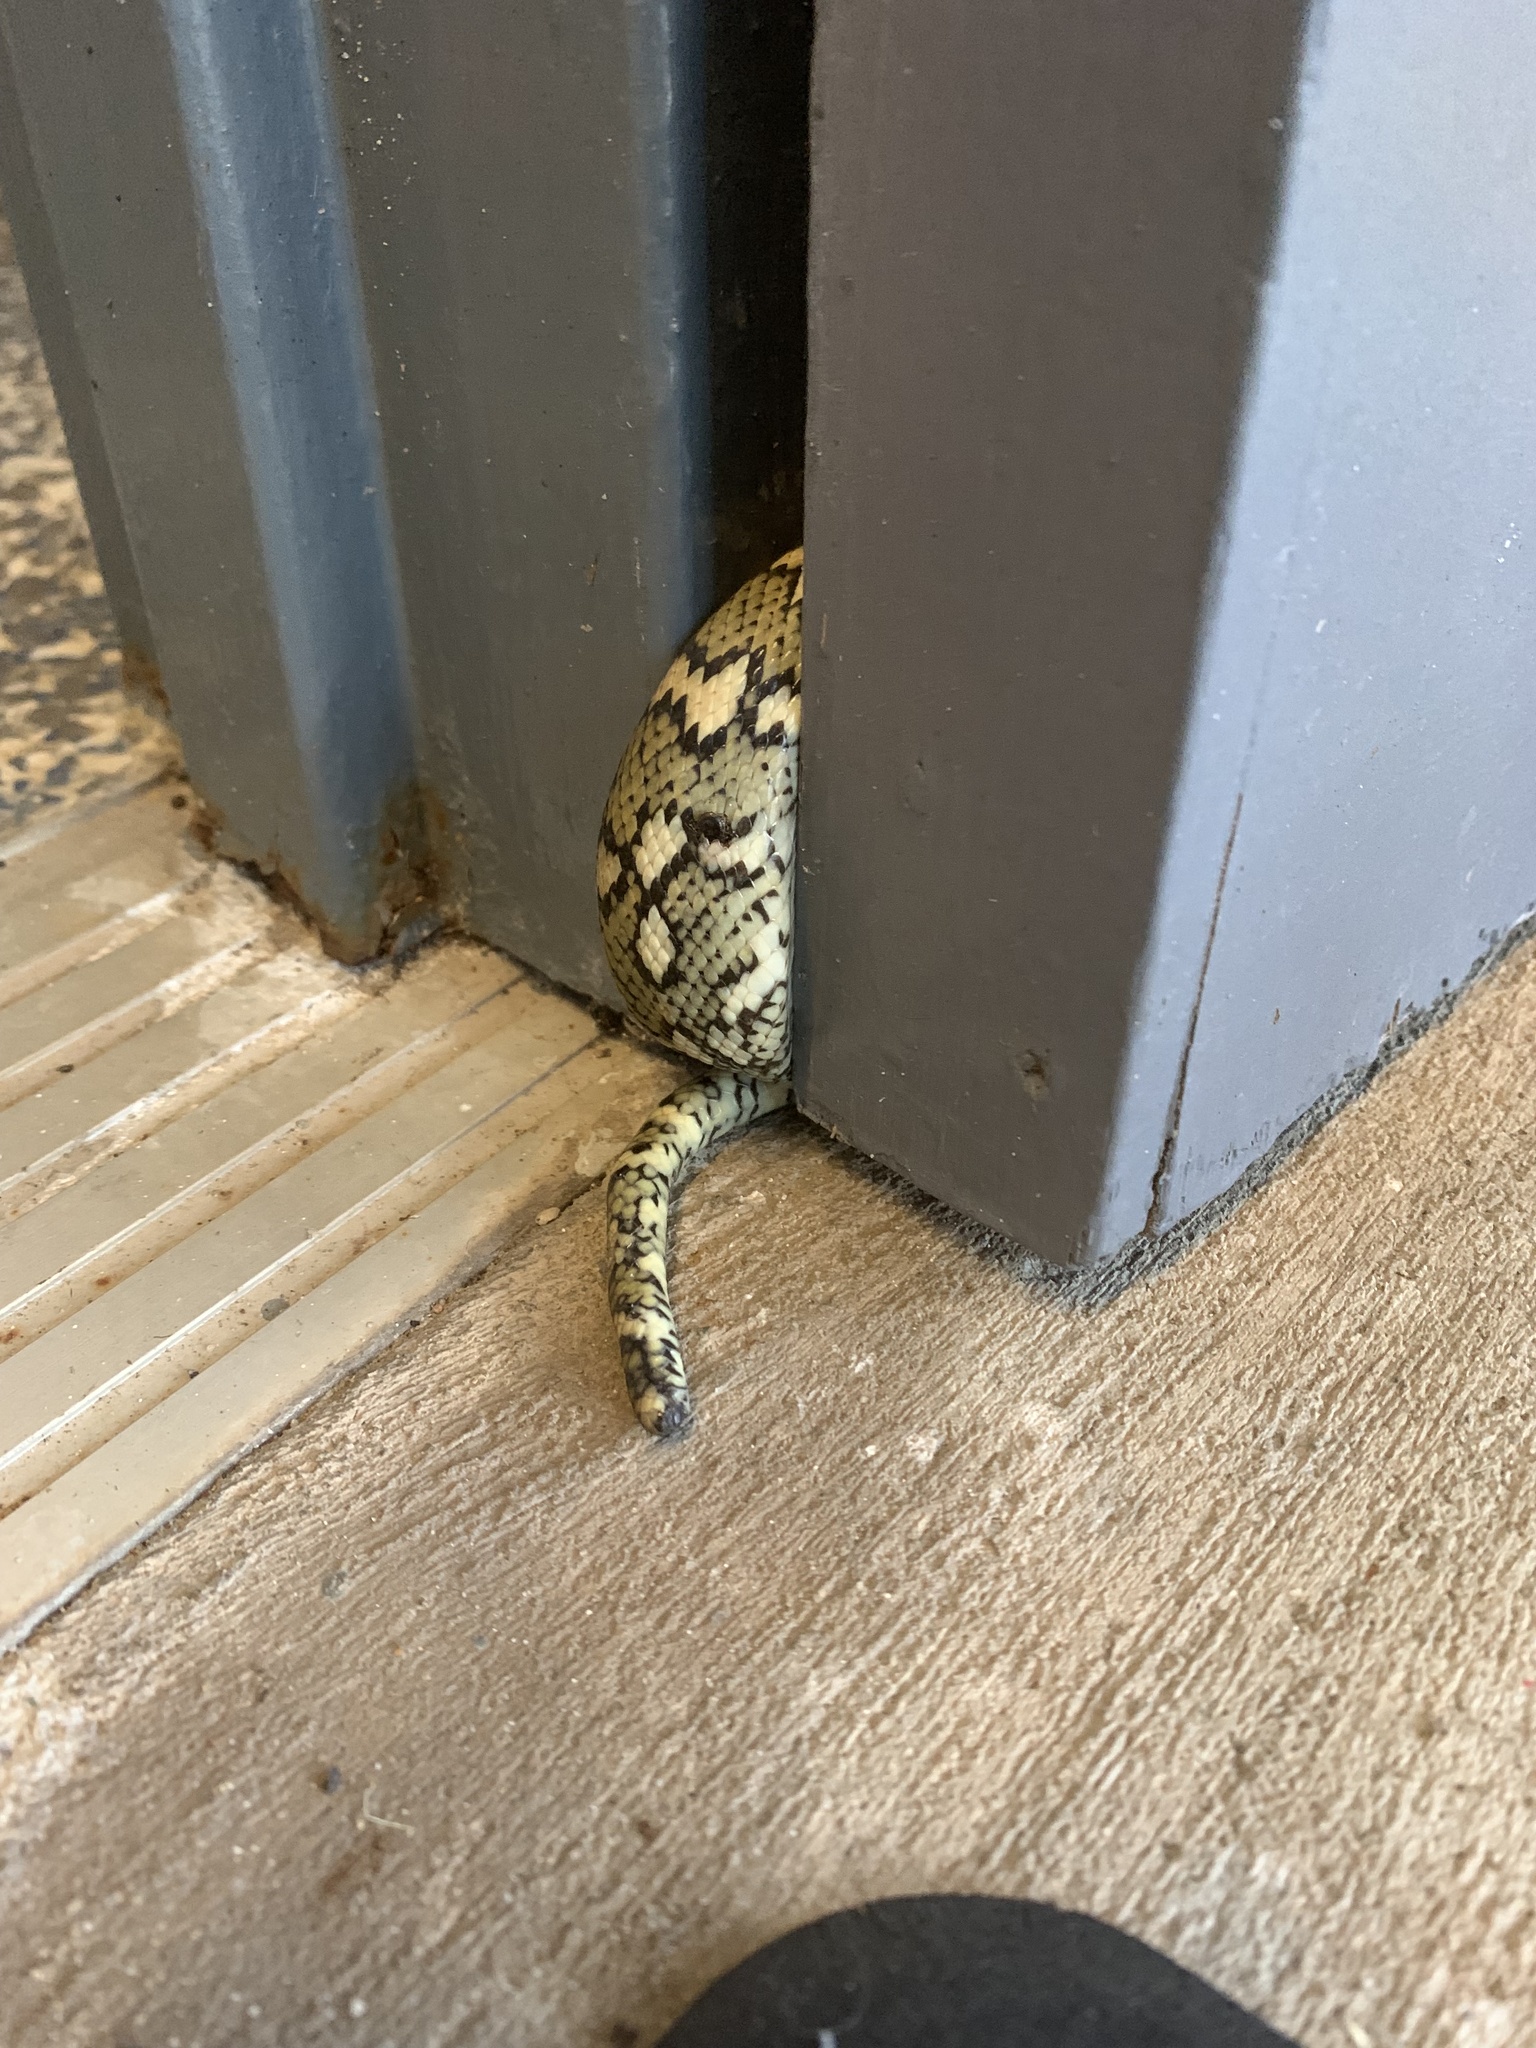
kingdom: Animalia
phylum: Chordata
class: Squamata
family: Pythonidae
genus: Morelia
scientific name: Morelia spilota
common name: Carpet python
